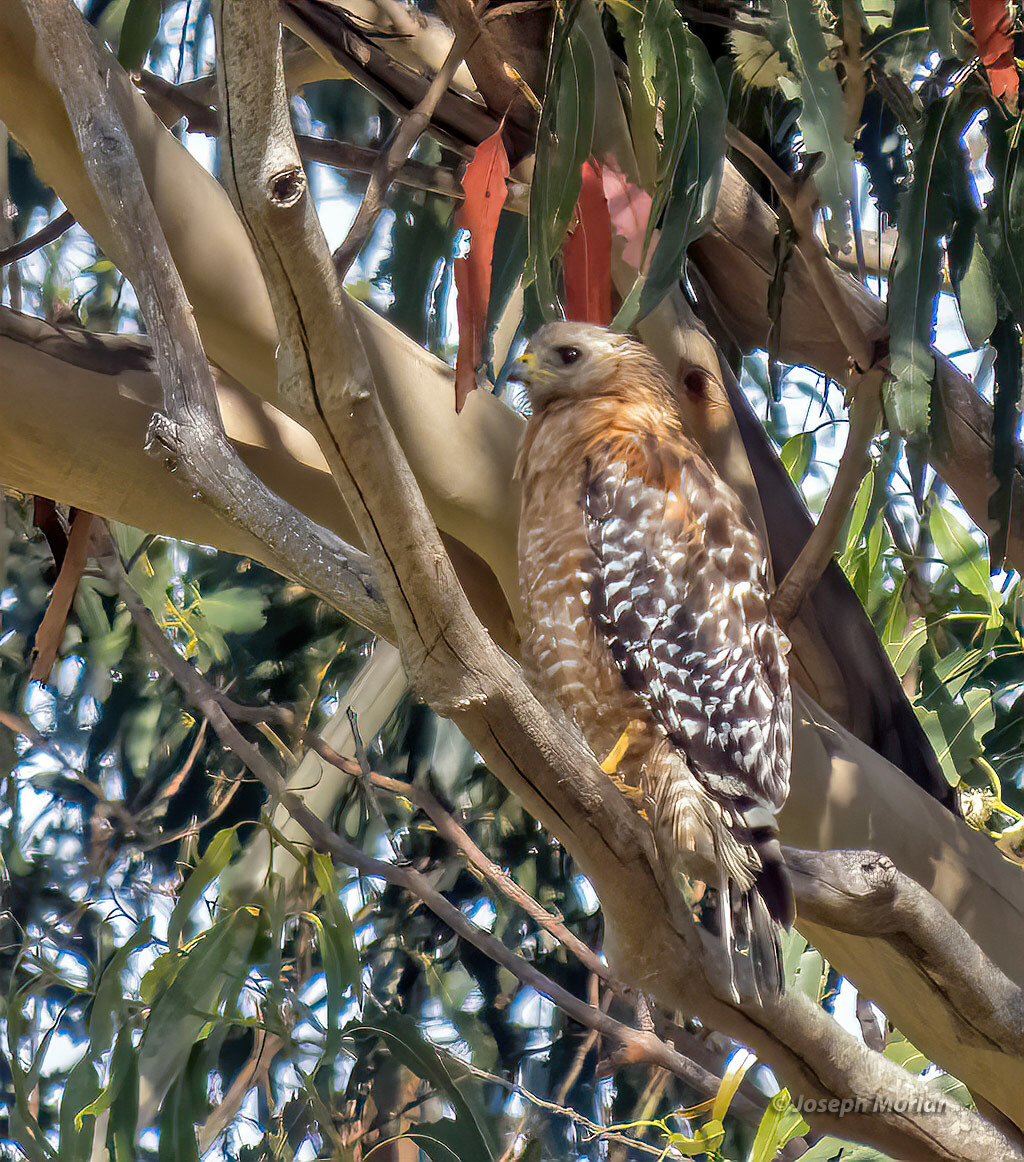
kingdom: Animalia
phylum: Chordata
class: Aves
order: Accipitriformes
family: Accipitridae
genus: Buteo
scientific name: Buteo lineatus
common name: Red-shouldered hawk
